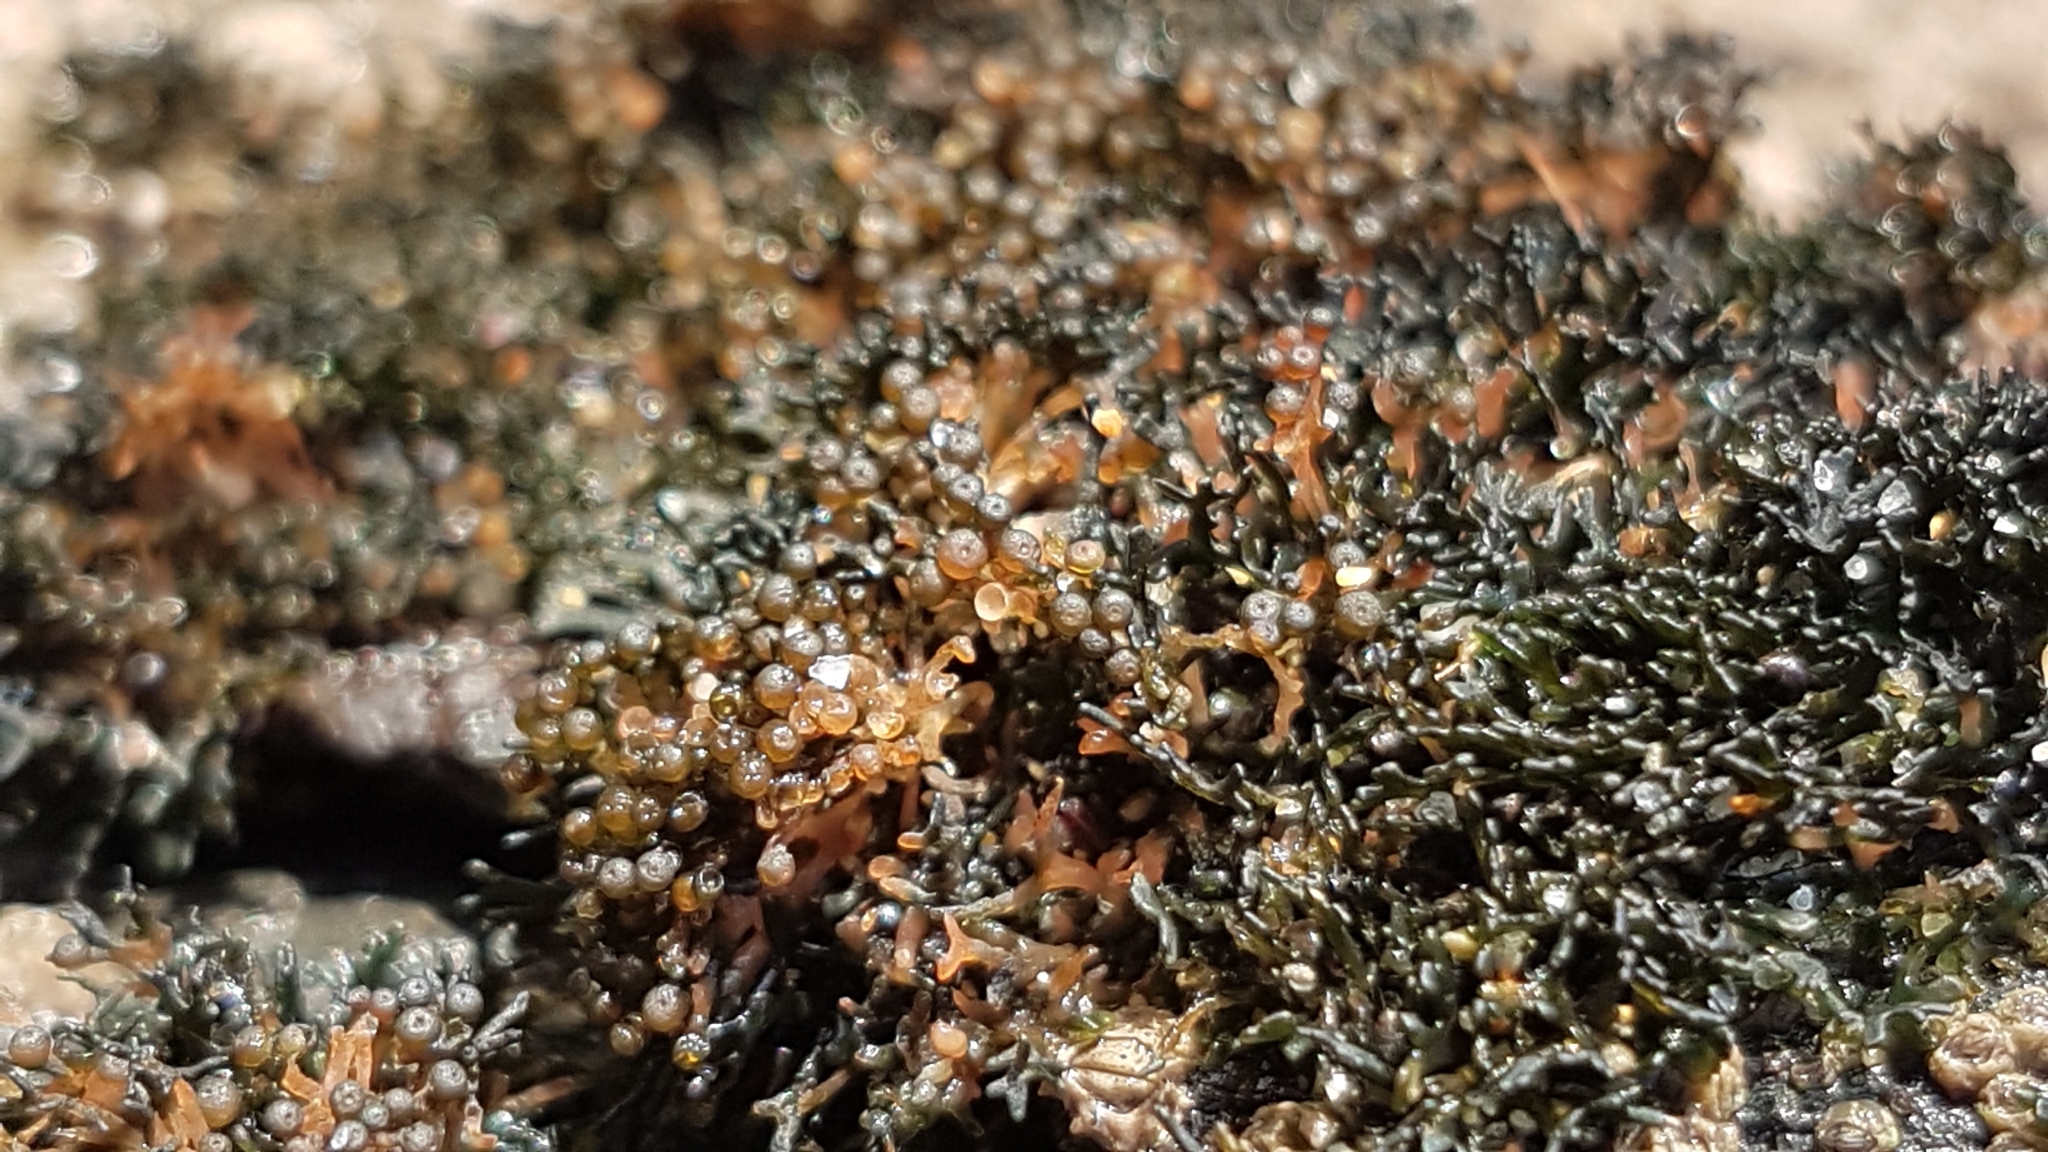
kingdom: Fungi
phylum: Ascomycota
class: Lichinomycetes
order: Lichinales
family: Lichinaceae
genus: Lichina
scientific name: Lichina pygmaea
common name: Black lichen
